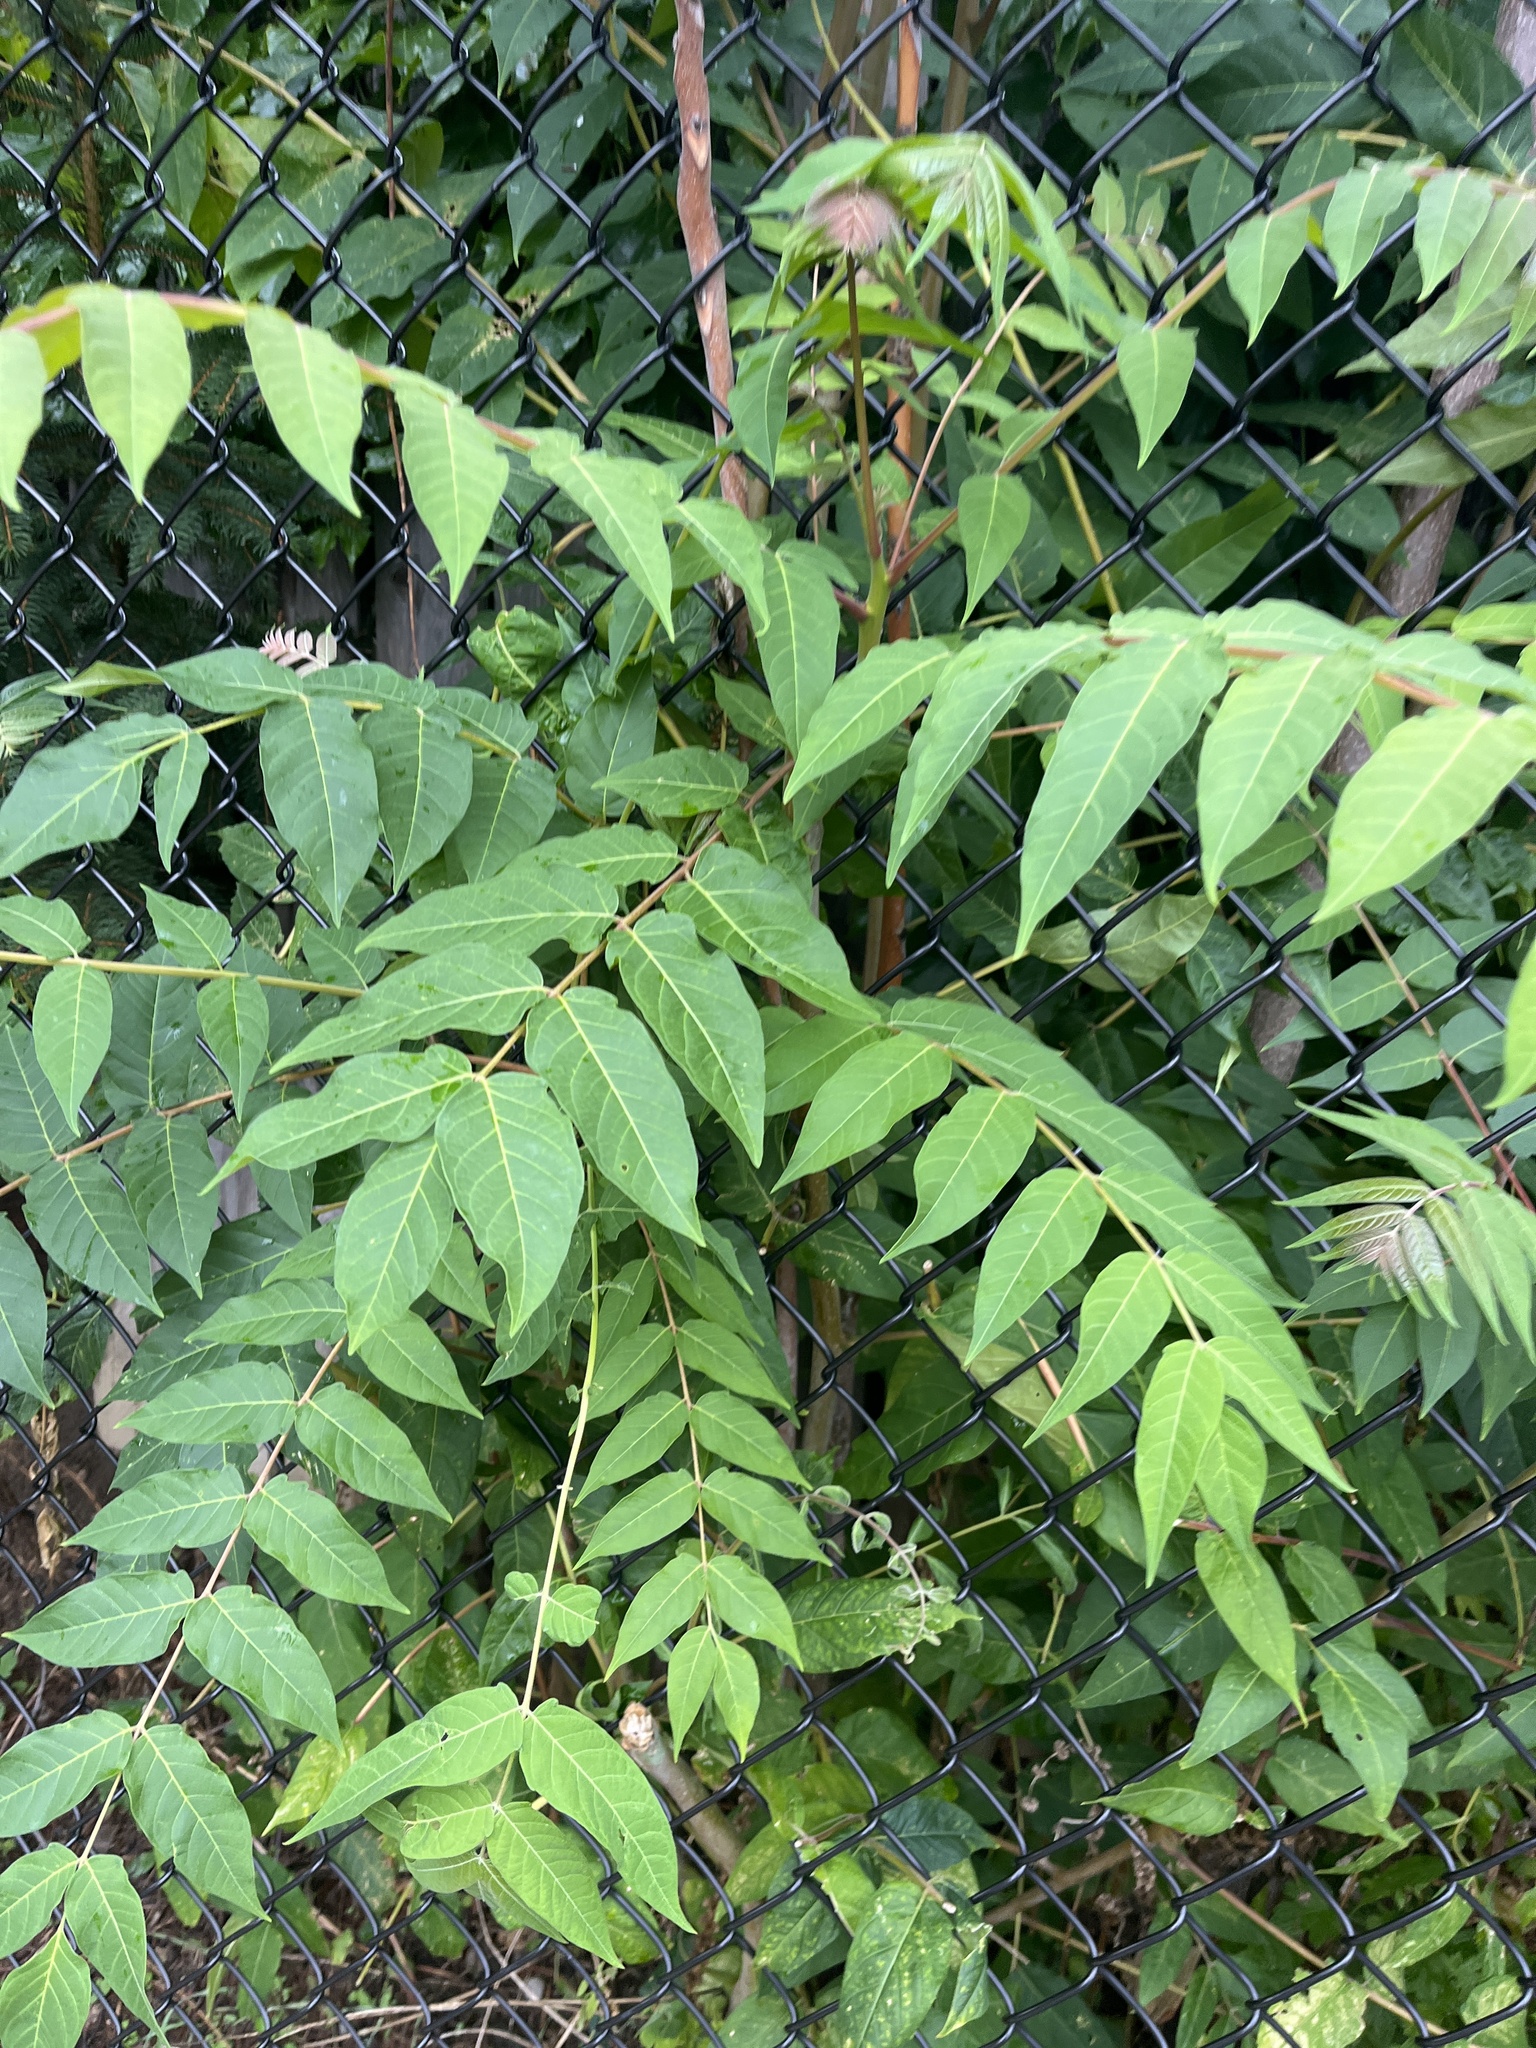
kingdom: Plantae
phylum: Tracheophyta
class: Magnoliopsida
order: Sapindales
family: Simaroubaceae
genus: Ailanthus
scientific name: Ailanthus altissima
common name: Tree-of-heaven
